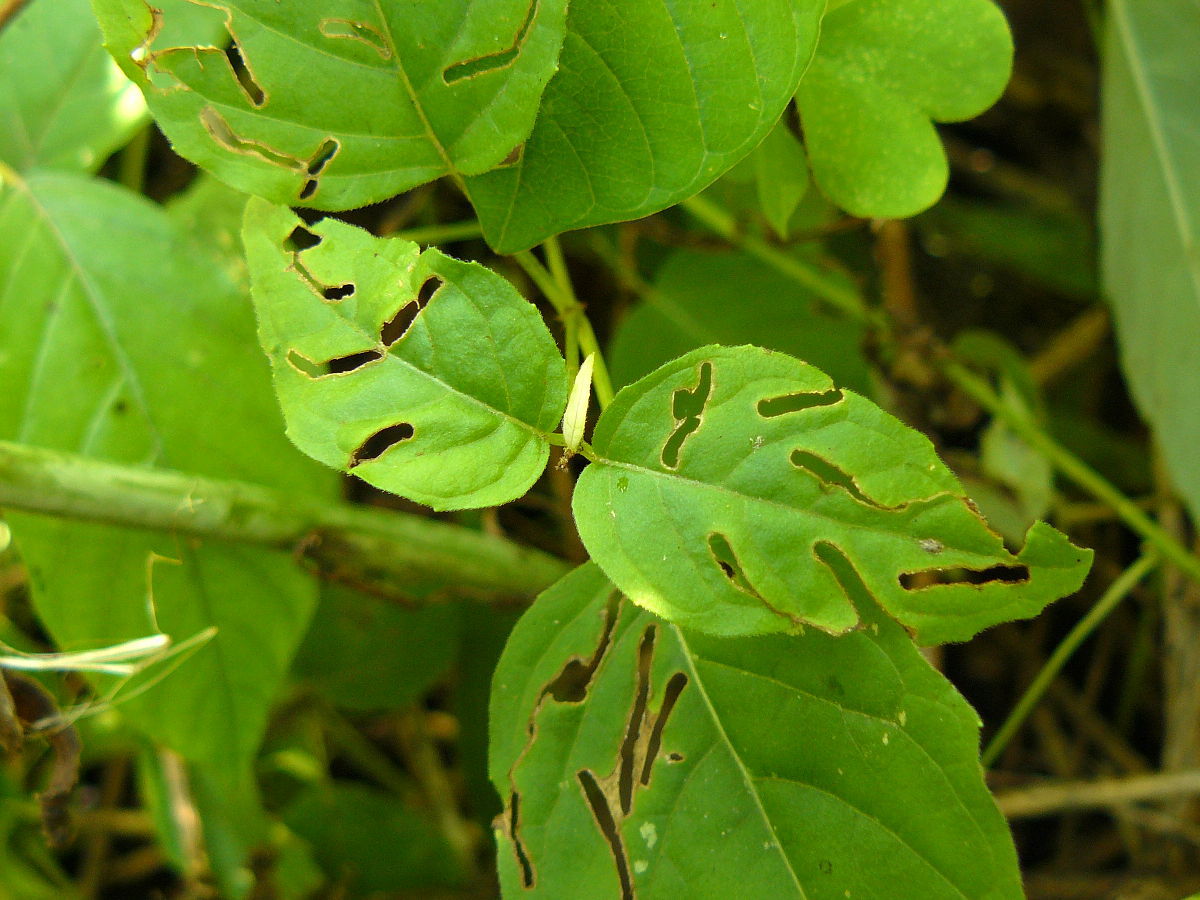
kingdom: Plantae
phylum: Tracheophyta
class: Magnoliopsida
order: Myrtales
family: Onagraceae
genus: Circaea
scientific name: Circaea canadensis
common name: Broad-leaved enchanter's nightshade
